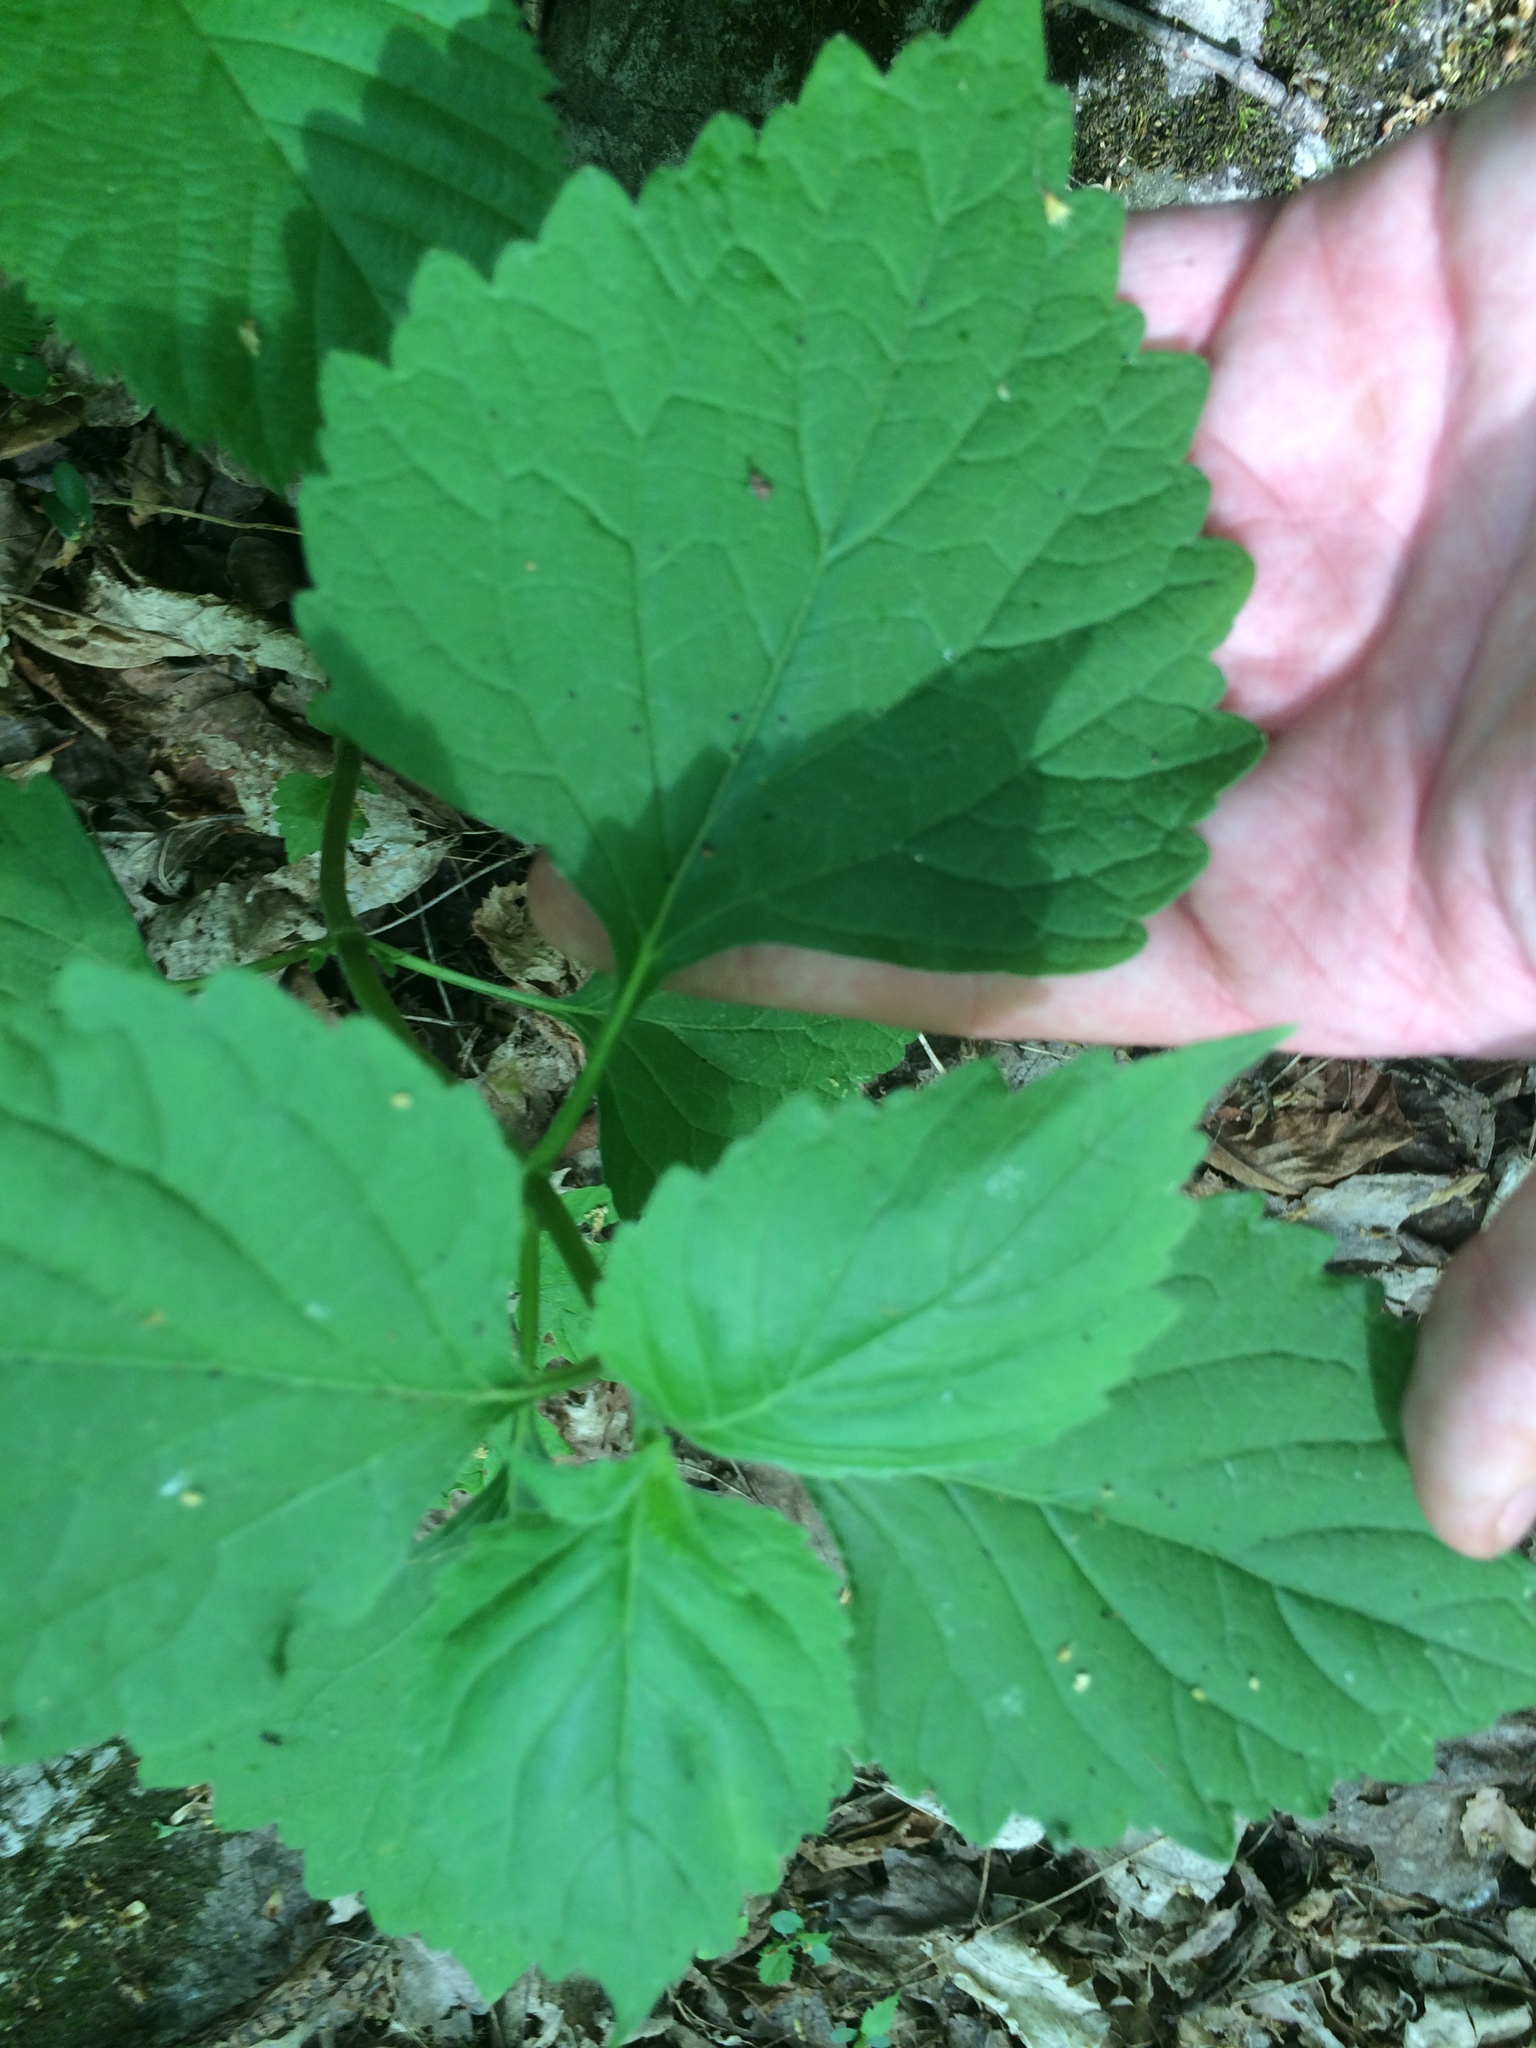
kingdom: Plantae
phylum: Tracheophyta
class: Magnoliopsida
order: Lamiales
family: Phrymaceae
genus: Phryma
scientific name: Phryma leptostachya
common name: American lopseed
